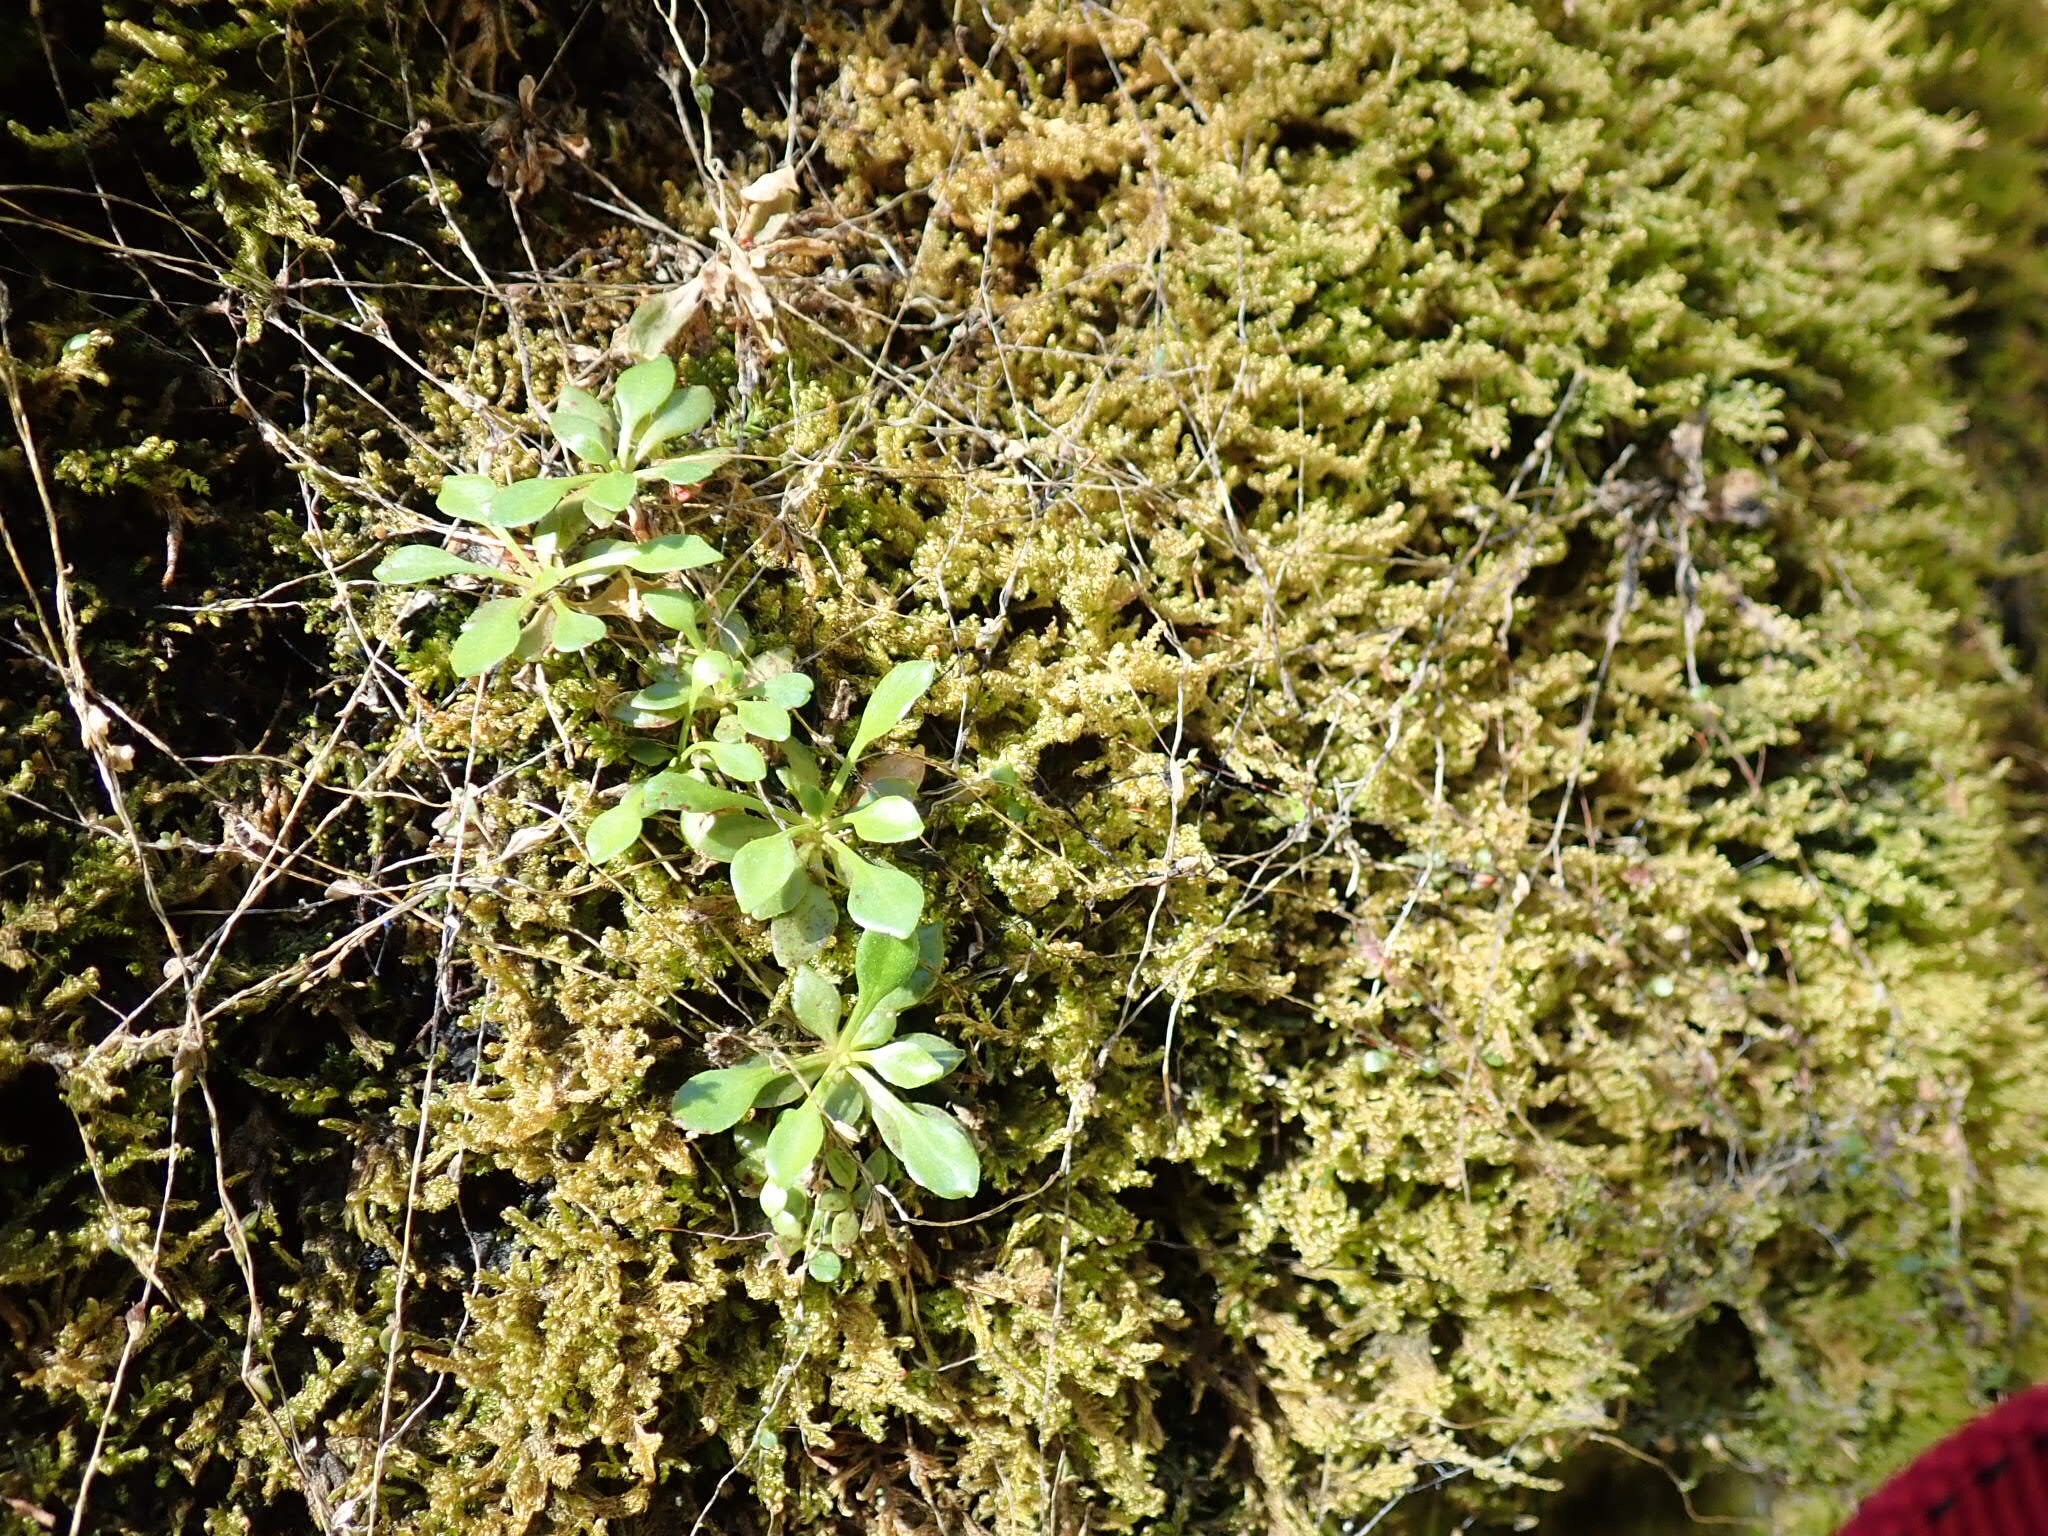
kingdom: Plantae
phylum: Tracheophyta
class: Magnoliopsida
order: Caryophyllales
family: Montiaceae
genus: Montia
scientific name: Montia parvifolia
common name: Small-leaved blinks
